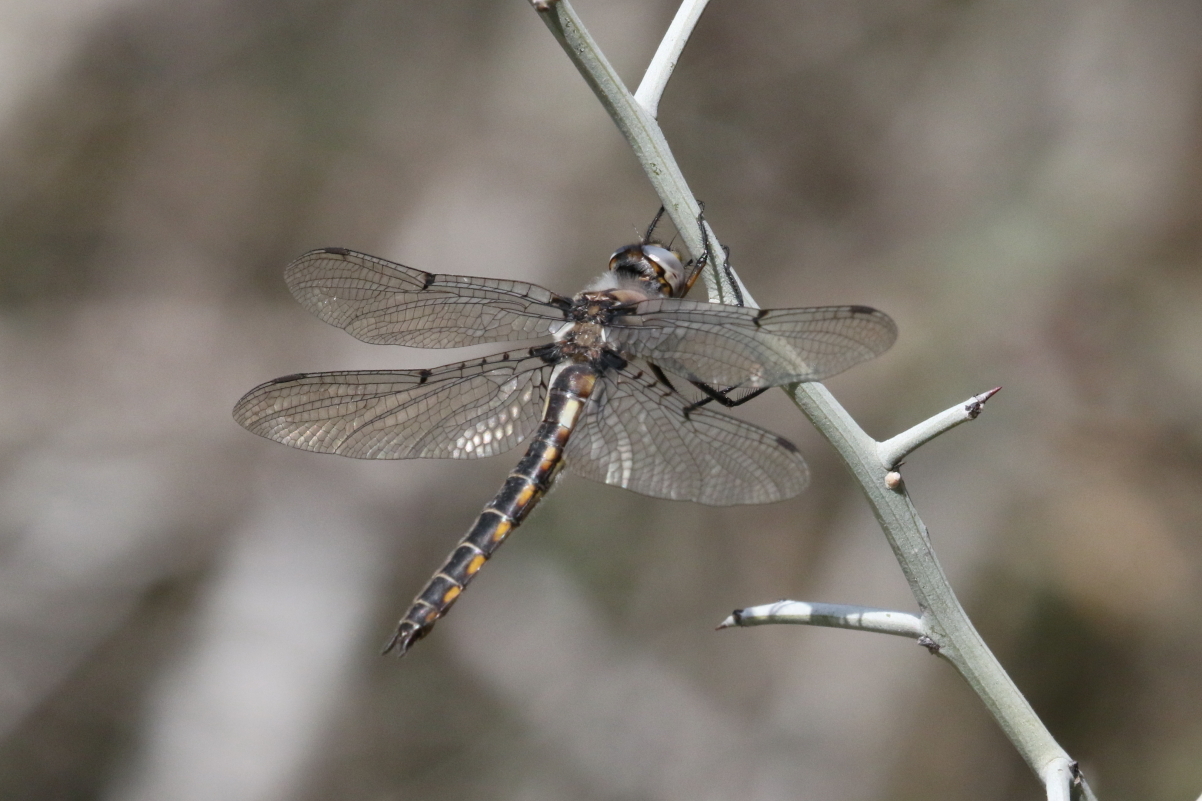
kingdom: Animalia
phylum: Arthropoda
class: Insecta
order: Odonata
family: Corduliidae
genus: Epitheca
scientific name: Epitheca petechialis
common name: Dot-winged baskettail
